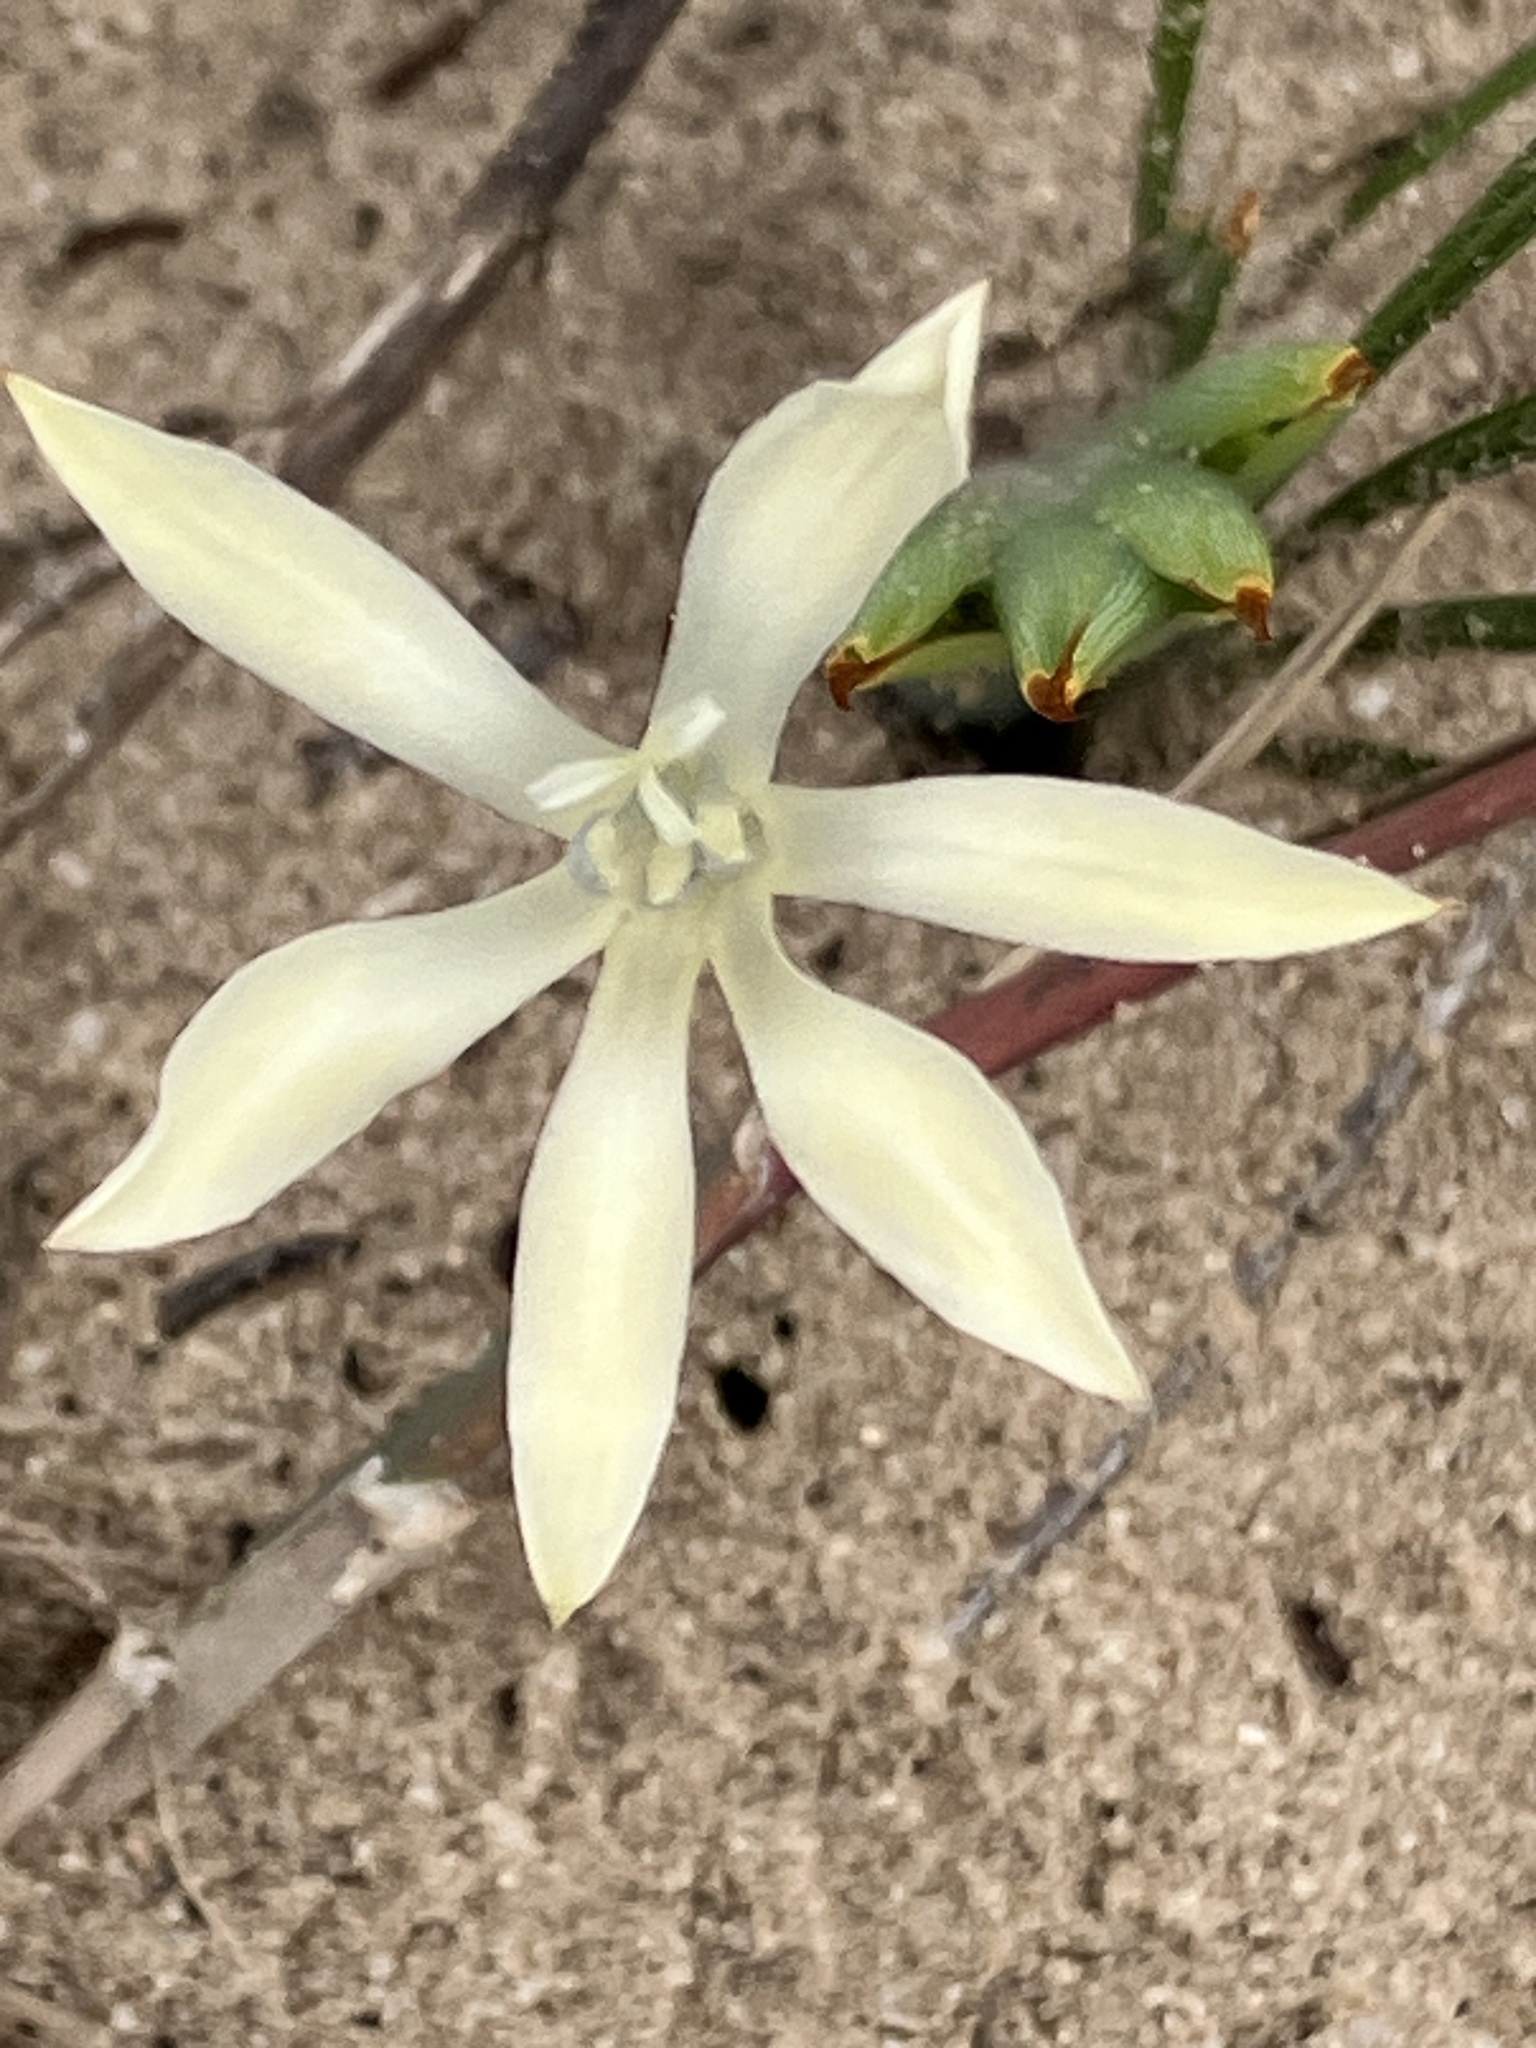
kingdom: Plantae
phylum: Tracheophyta
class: Liliopsida
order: Asparagales
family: Iridaceae
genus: Babiana
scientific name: Babiana tubiflora
